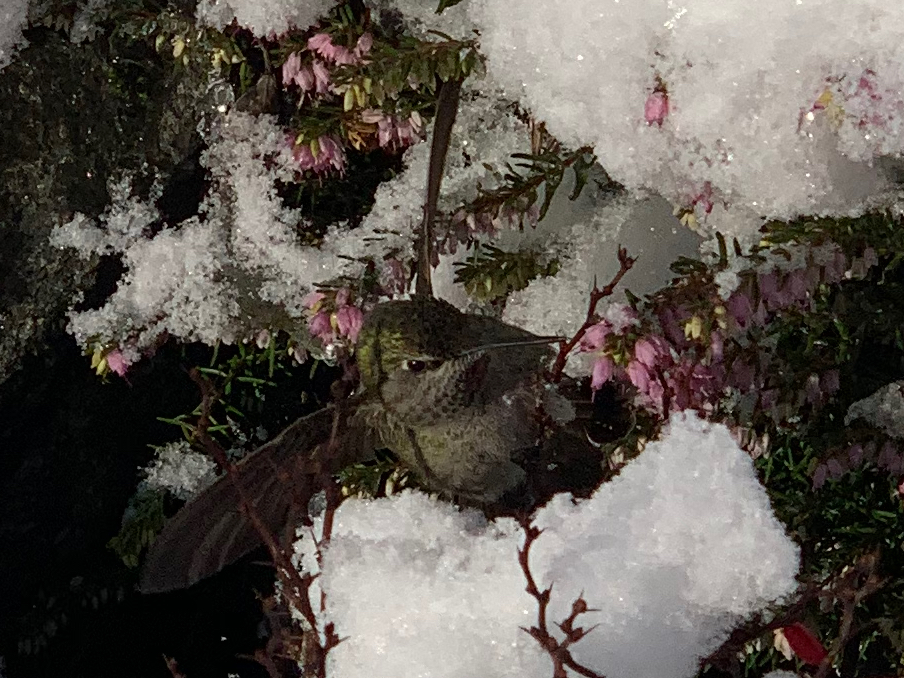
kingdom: Animalia
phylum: Chordata
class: Aves
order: Apodiformes
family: Trochilidae
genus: Calypte
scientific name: Calypte anna
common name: Anna's hummingbird
